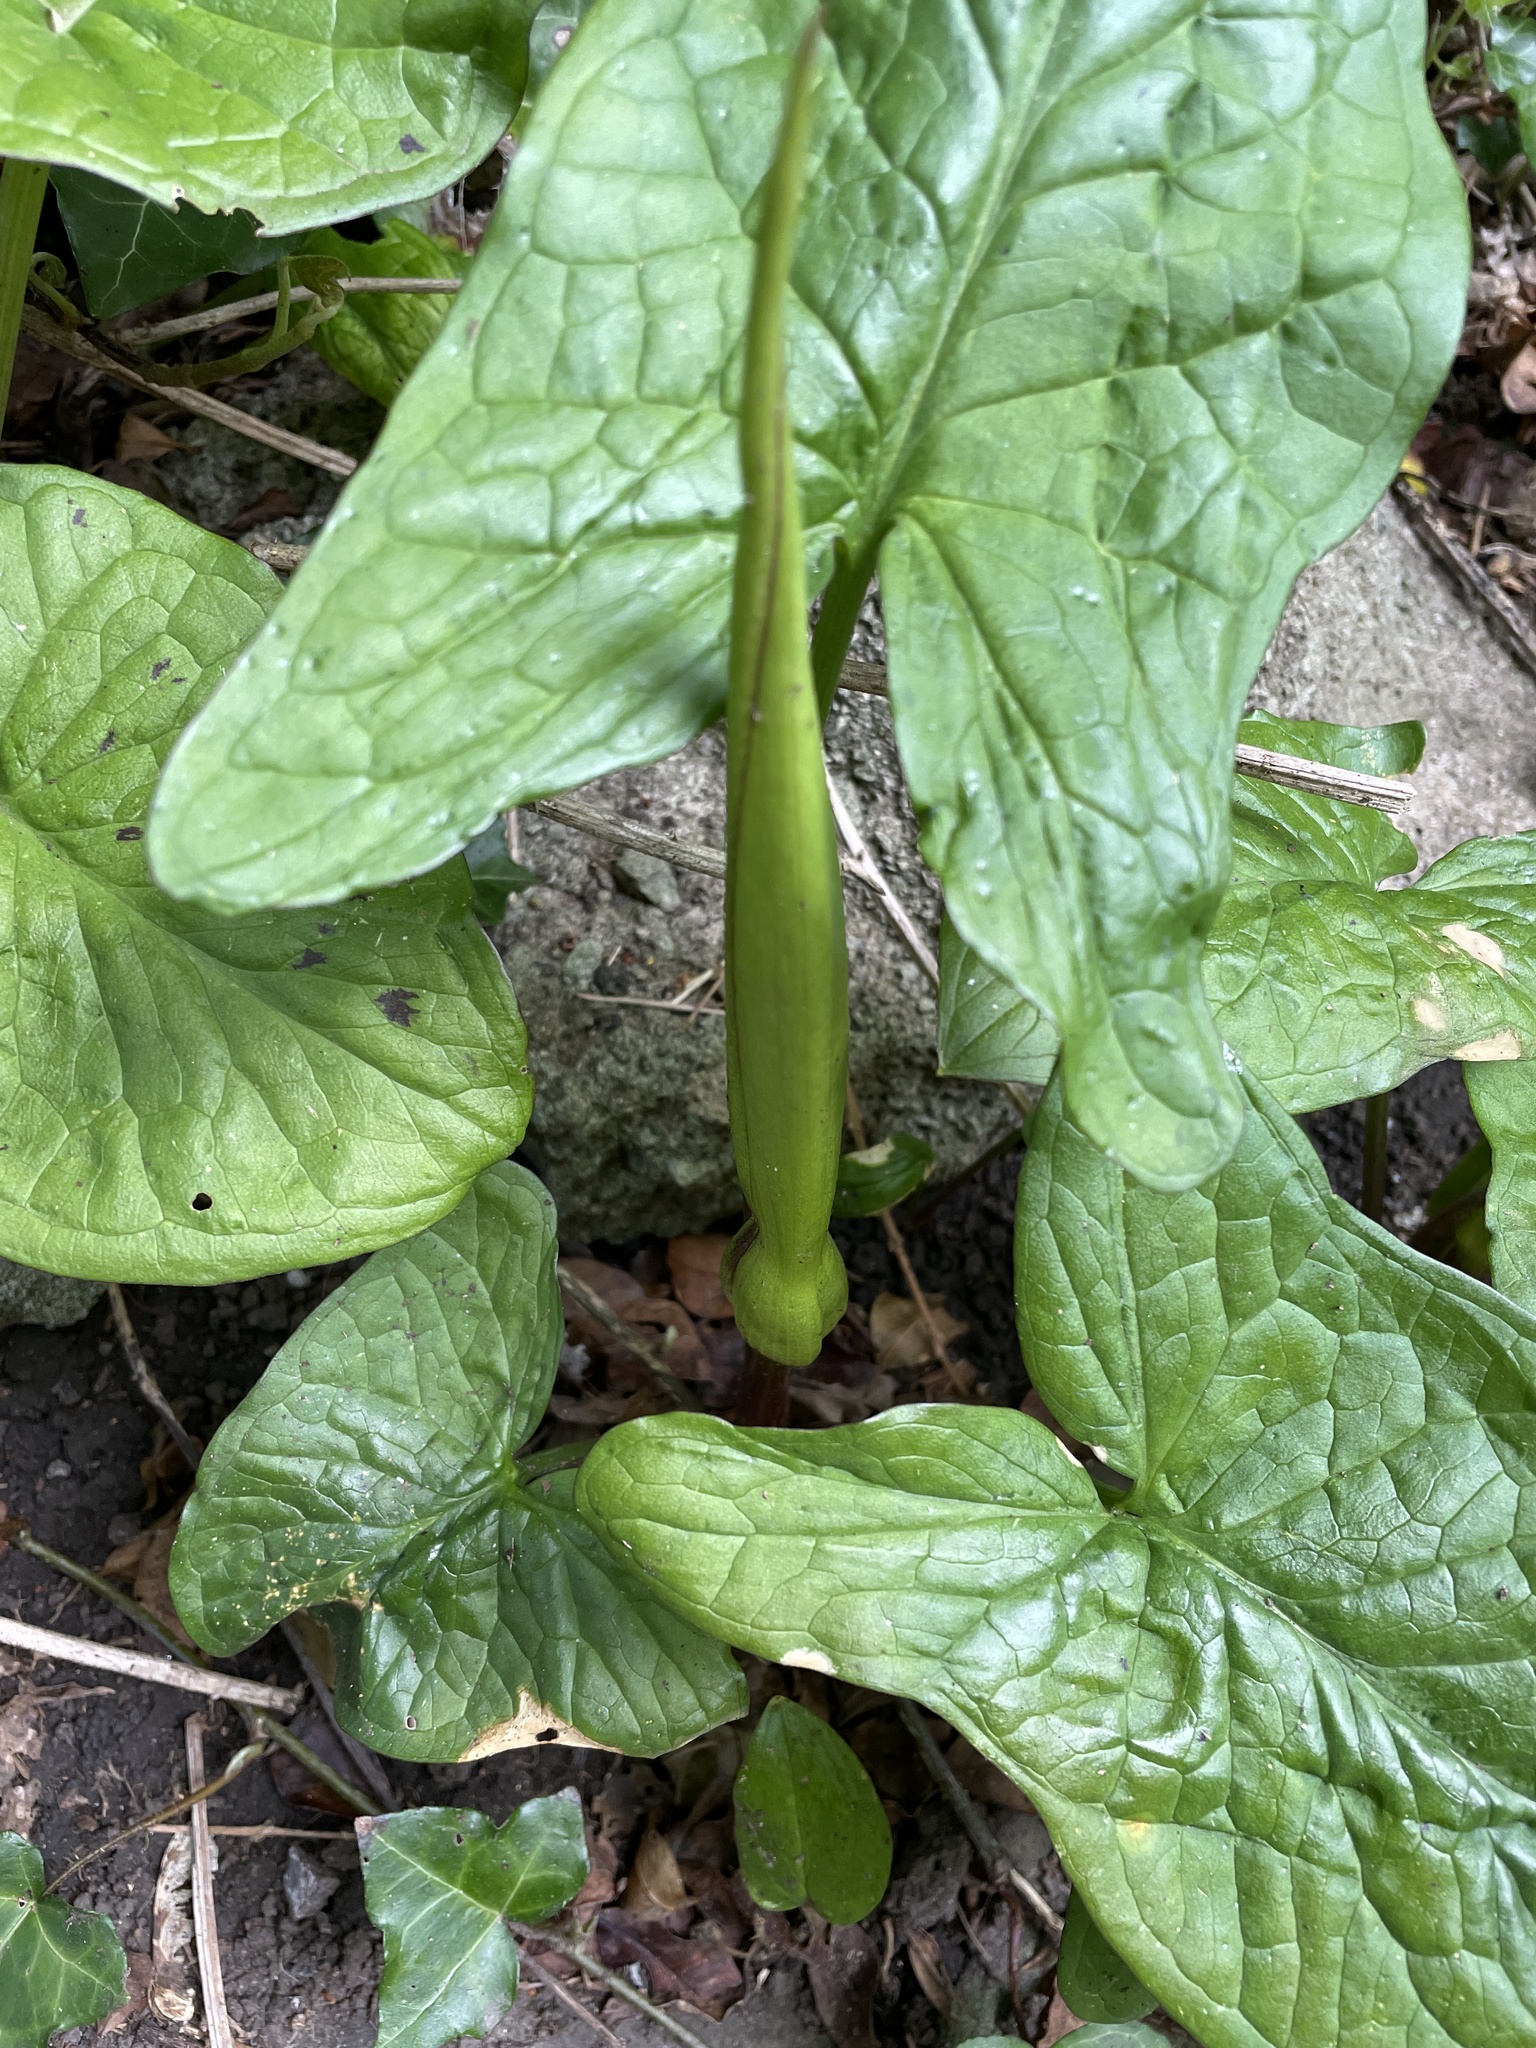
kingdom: Plantae
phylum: Tracheophyta
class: Liliopsida
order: Alismatales
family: Araceae
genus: Arum
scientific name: Arum maculatum
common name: Lords-and-ladies
